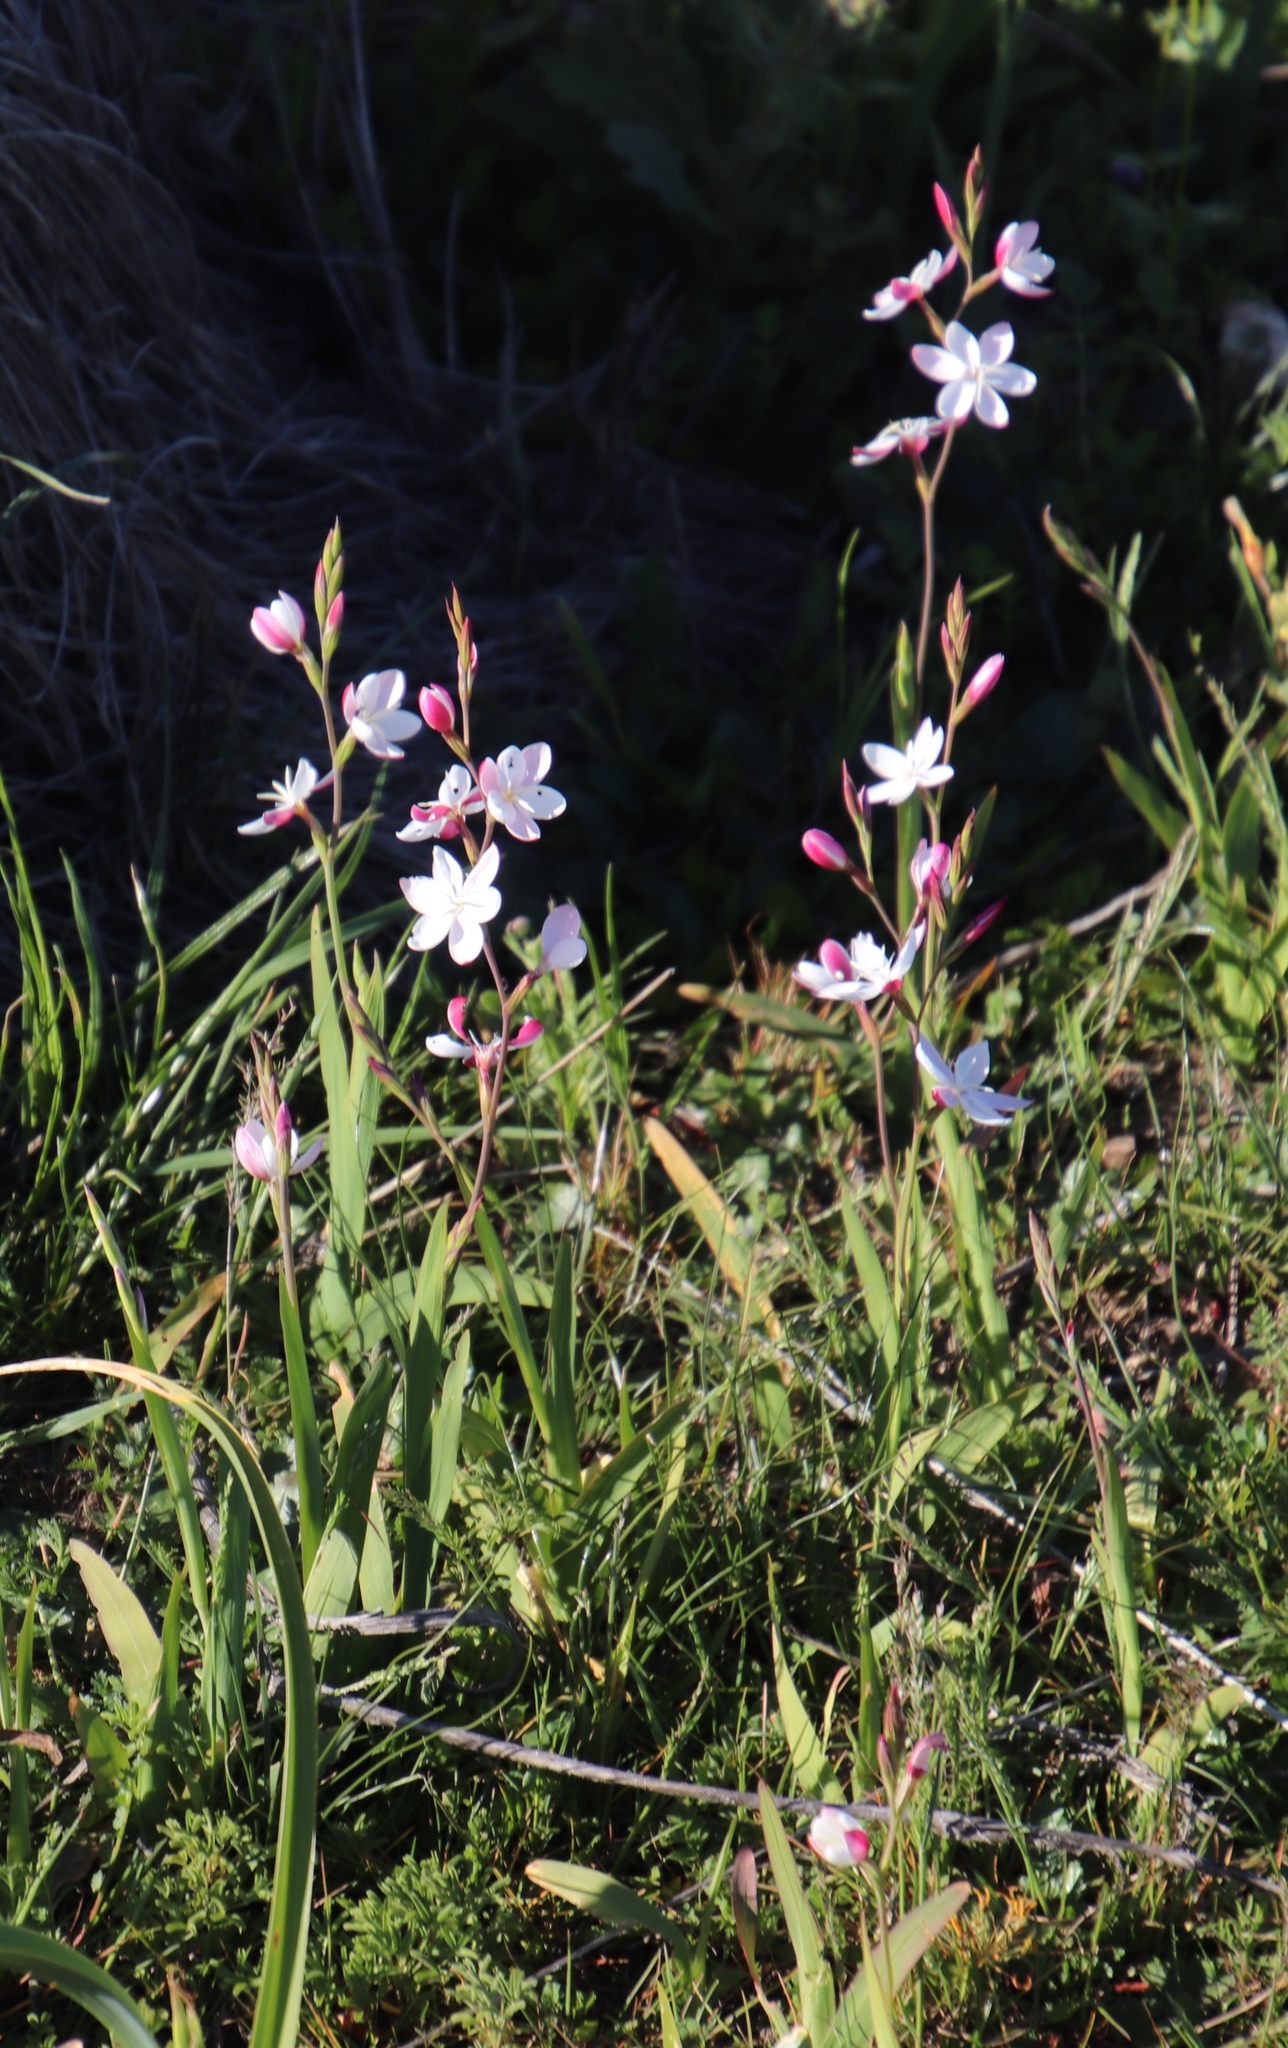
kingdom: Plantae
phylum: Tracheophyta
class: Liliopsida
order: Asparagales
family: Iridaceae
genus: Hesperantha
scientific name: Hesperantha cucullata
